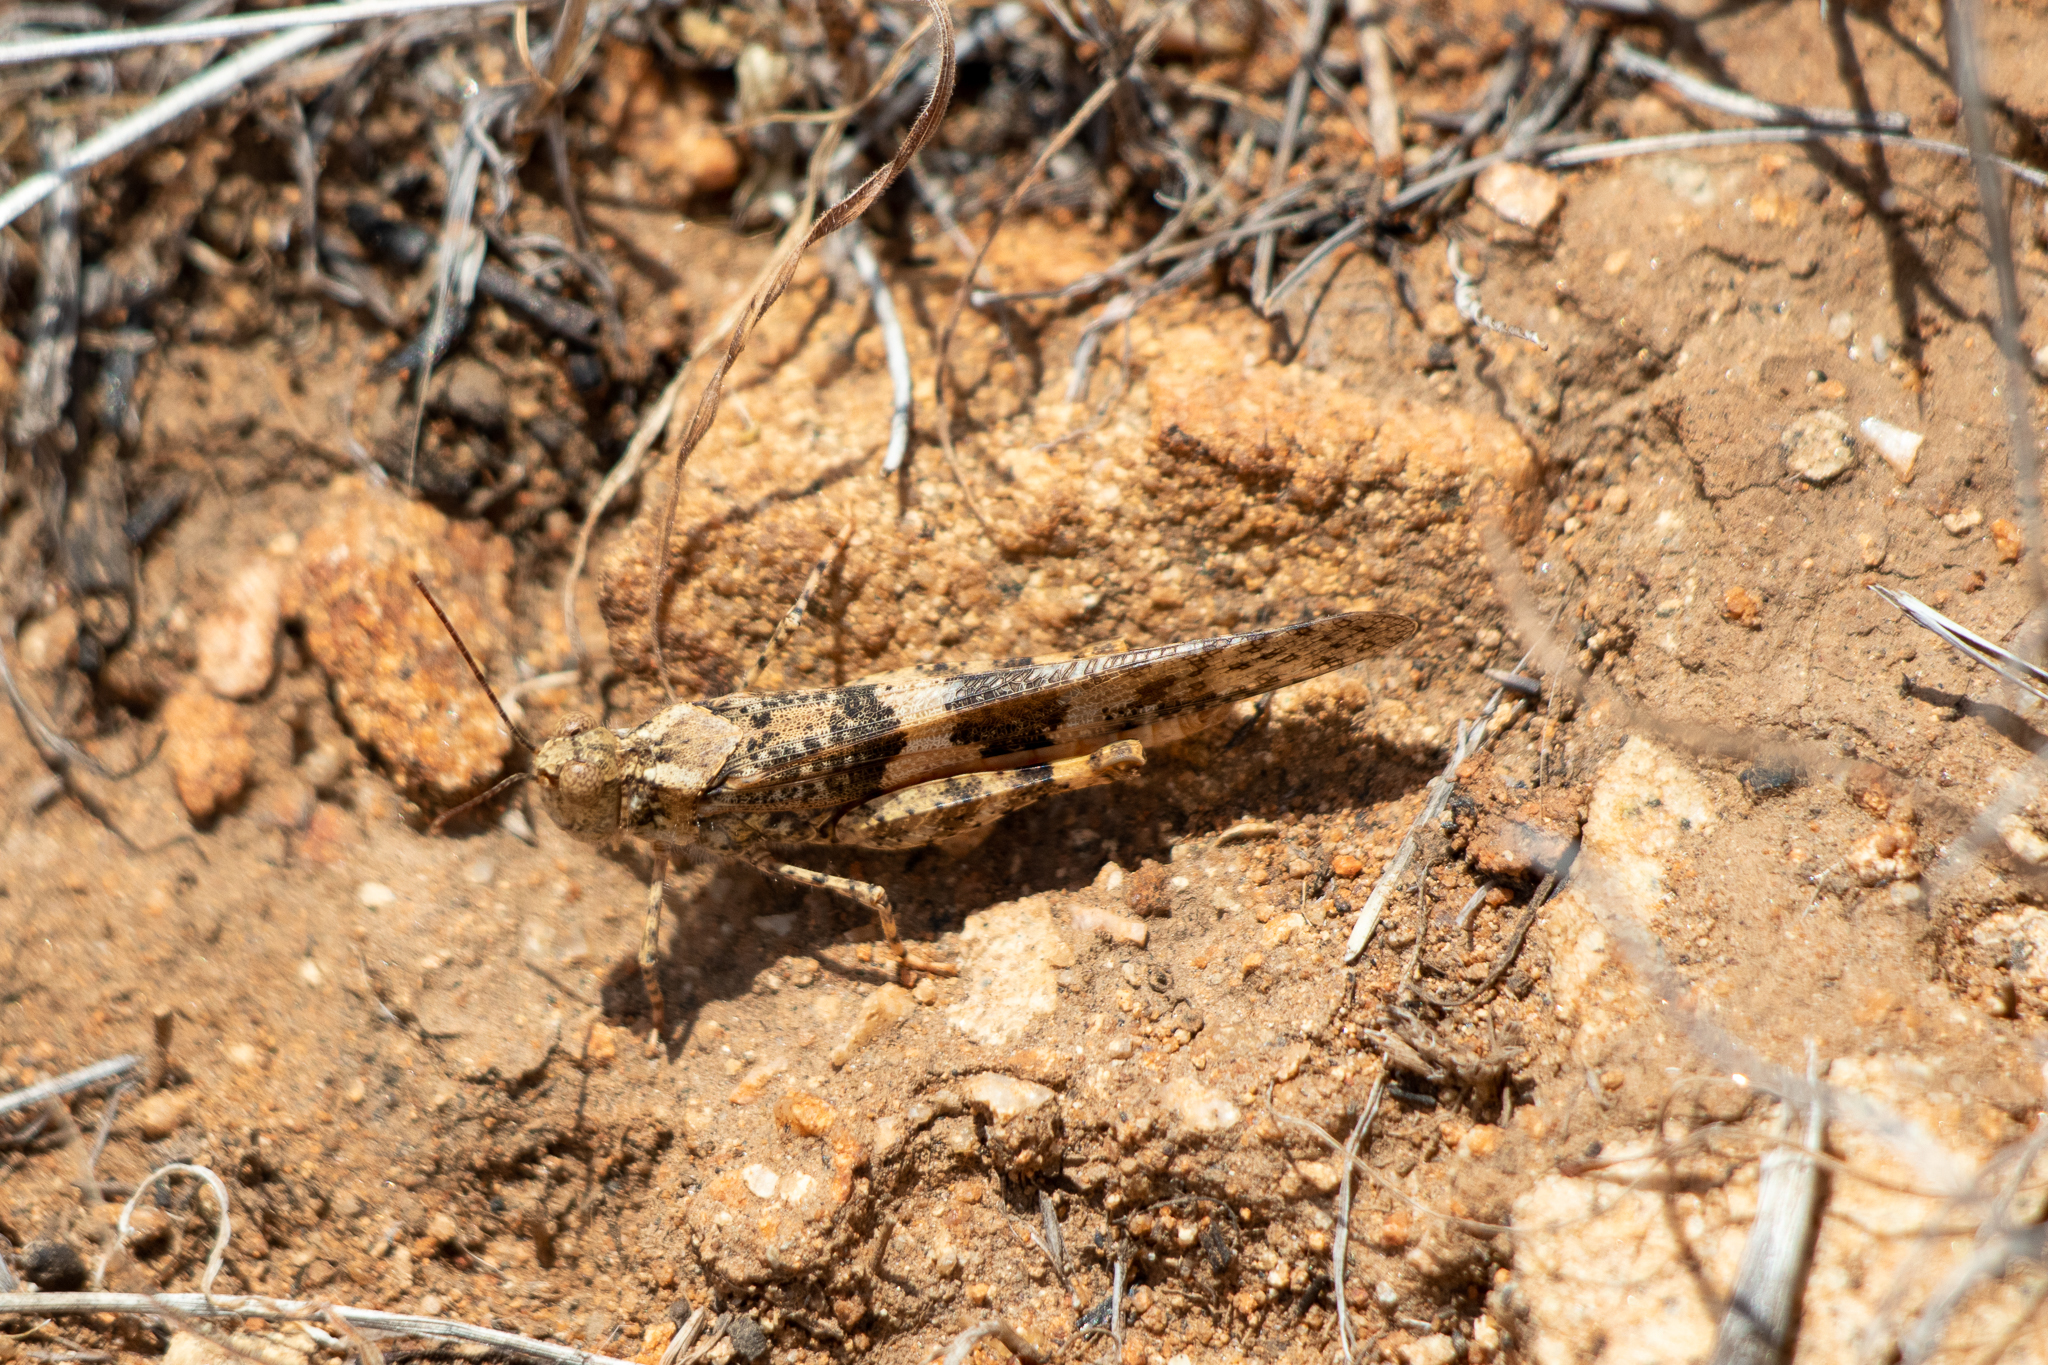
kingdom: Animalia
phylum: Arthropoda
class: Insecta
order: Orthoptera
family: Acrididae
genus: Trimerotropis
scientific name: Trimerotropis pallidipennis
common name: Pallid-winged grasshopper
